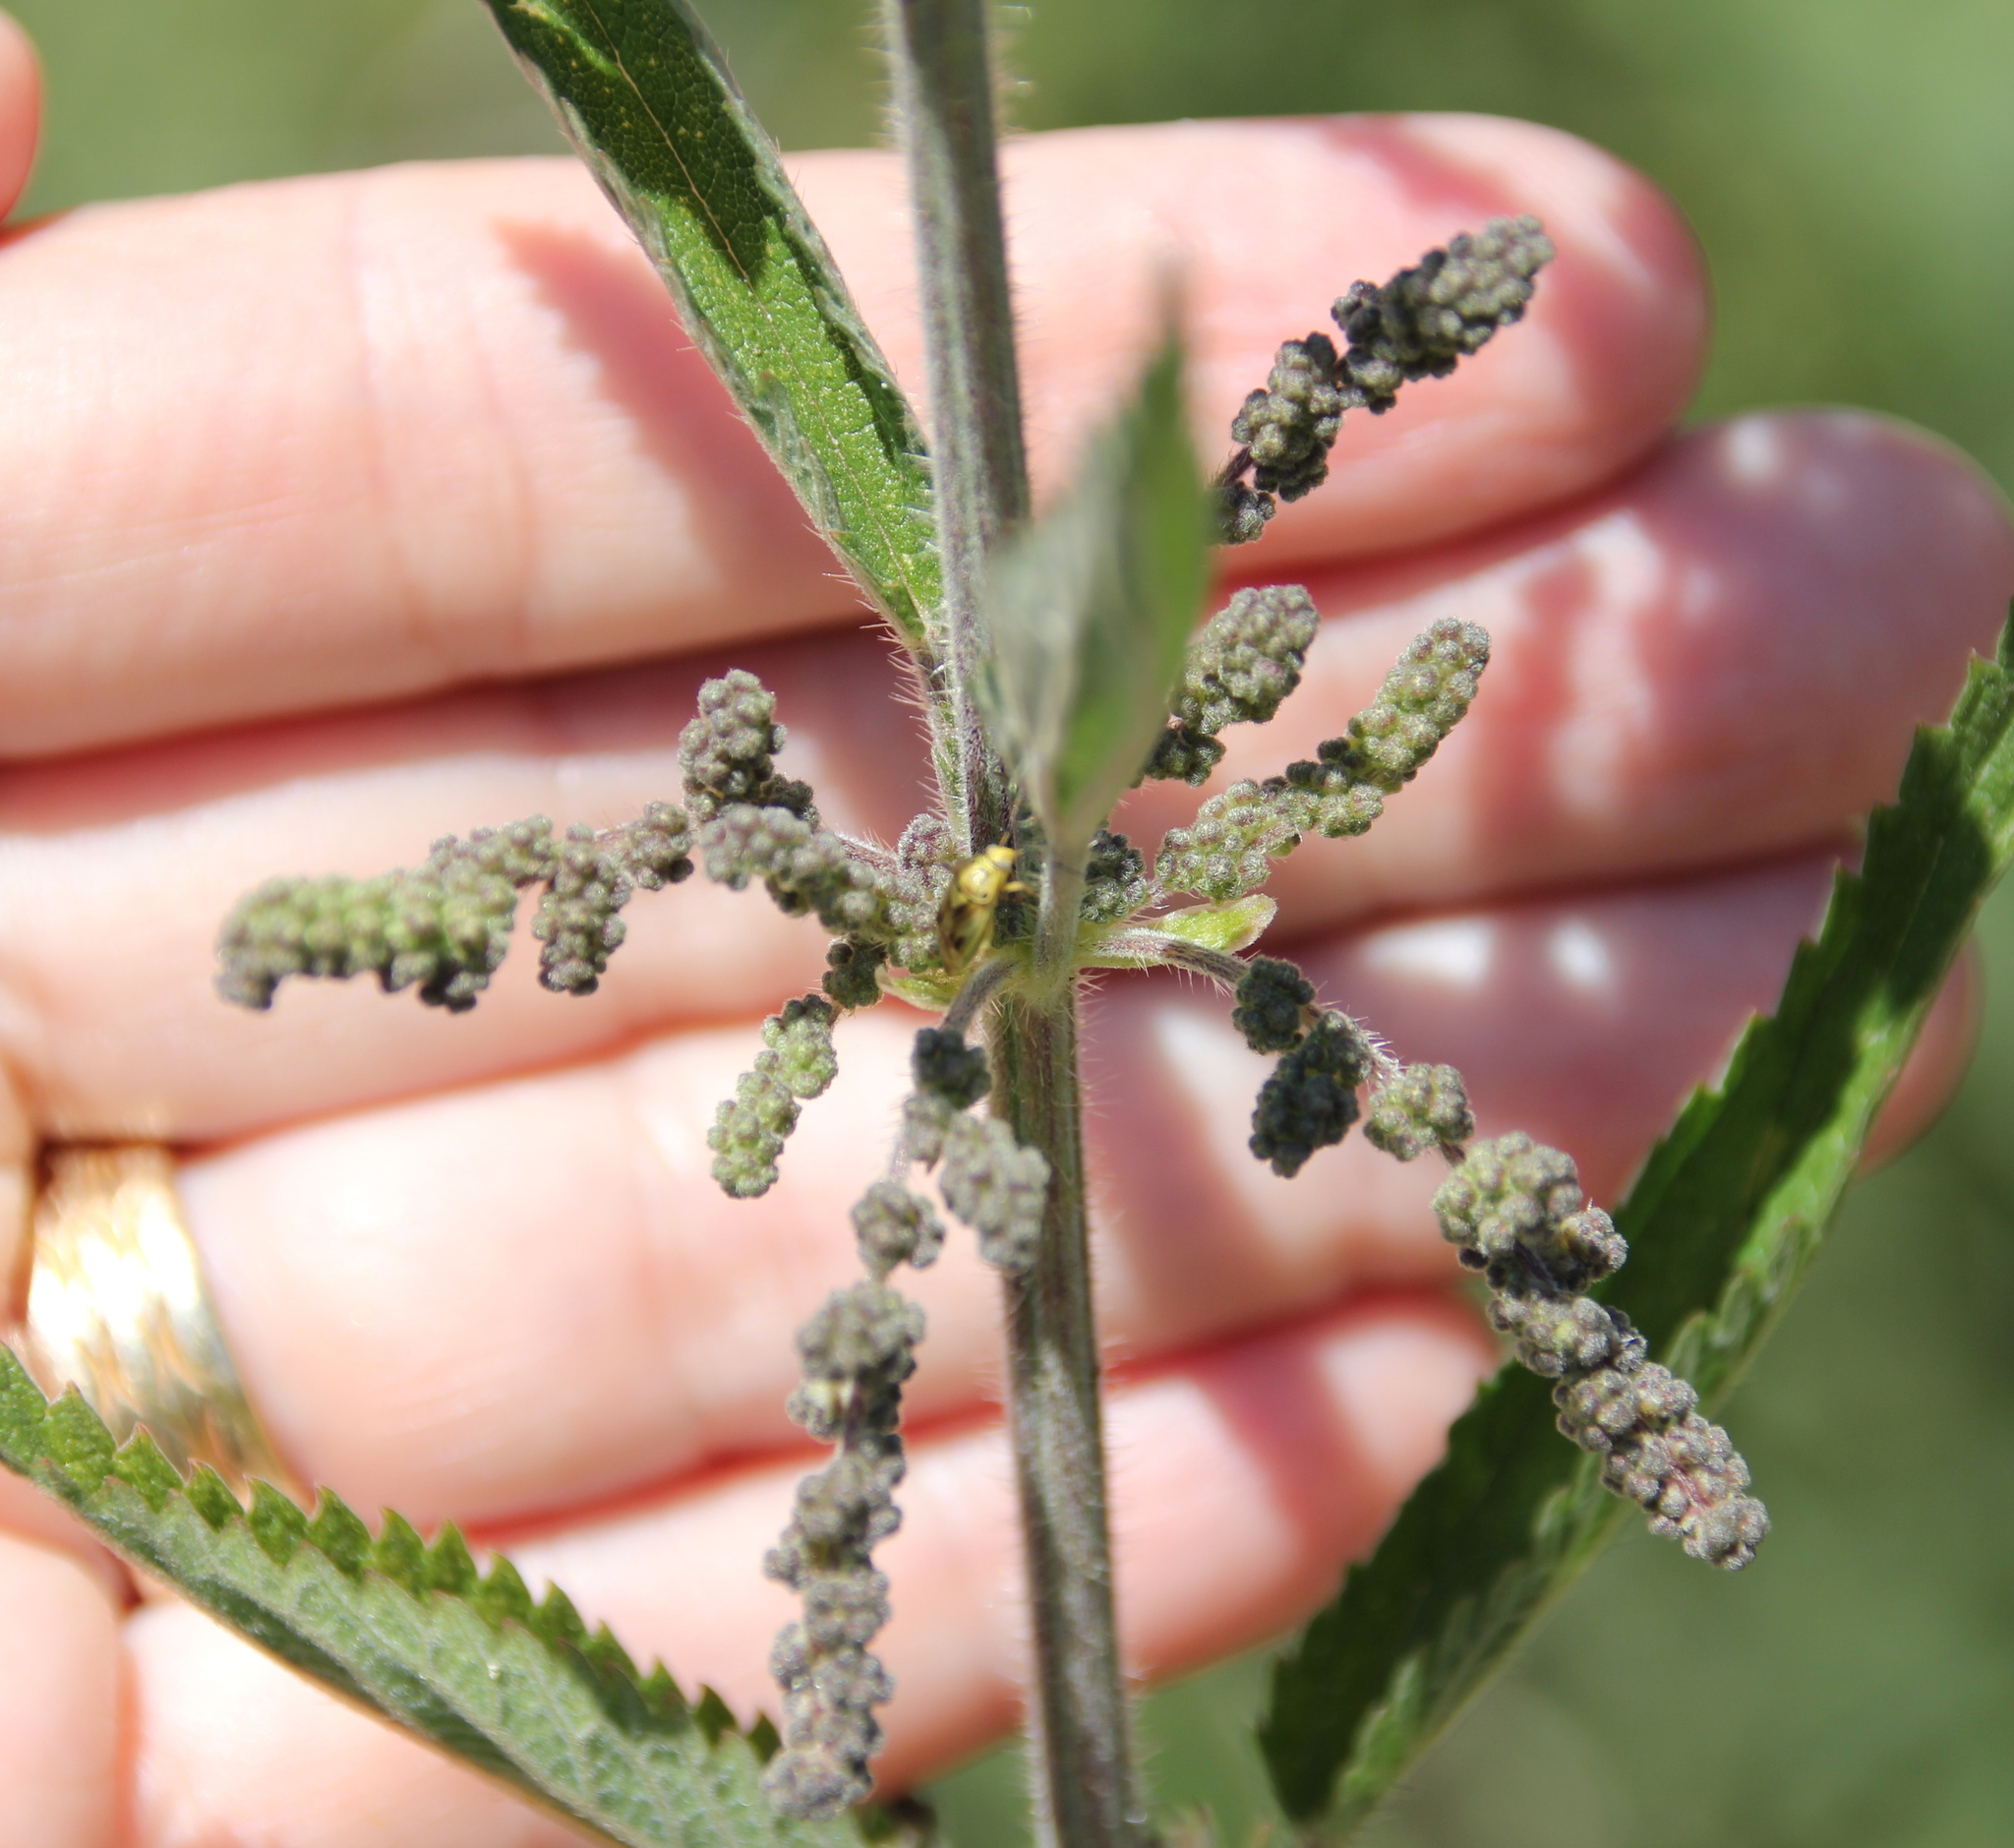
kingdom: Plantae
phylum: Tracheophyta
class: Magnoliopsida
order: Rosales
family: Urticaceae
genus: Urtica
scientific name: Urtica dioica
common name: Common nettle
